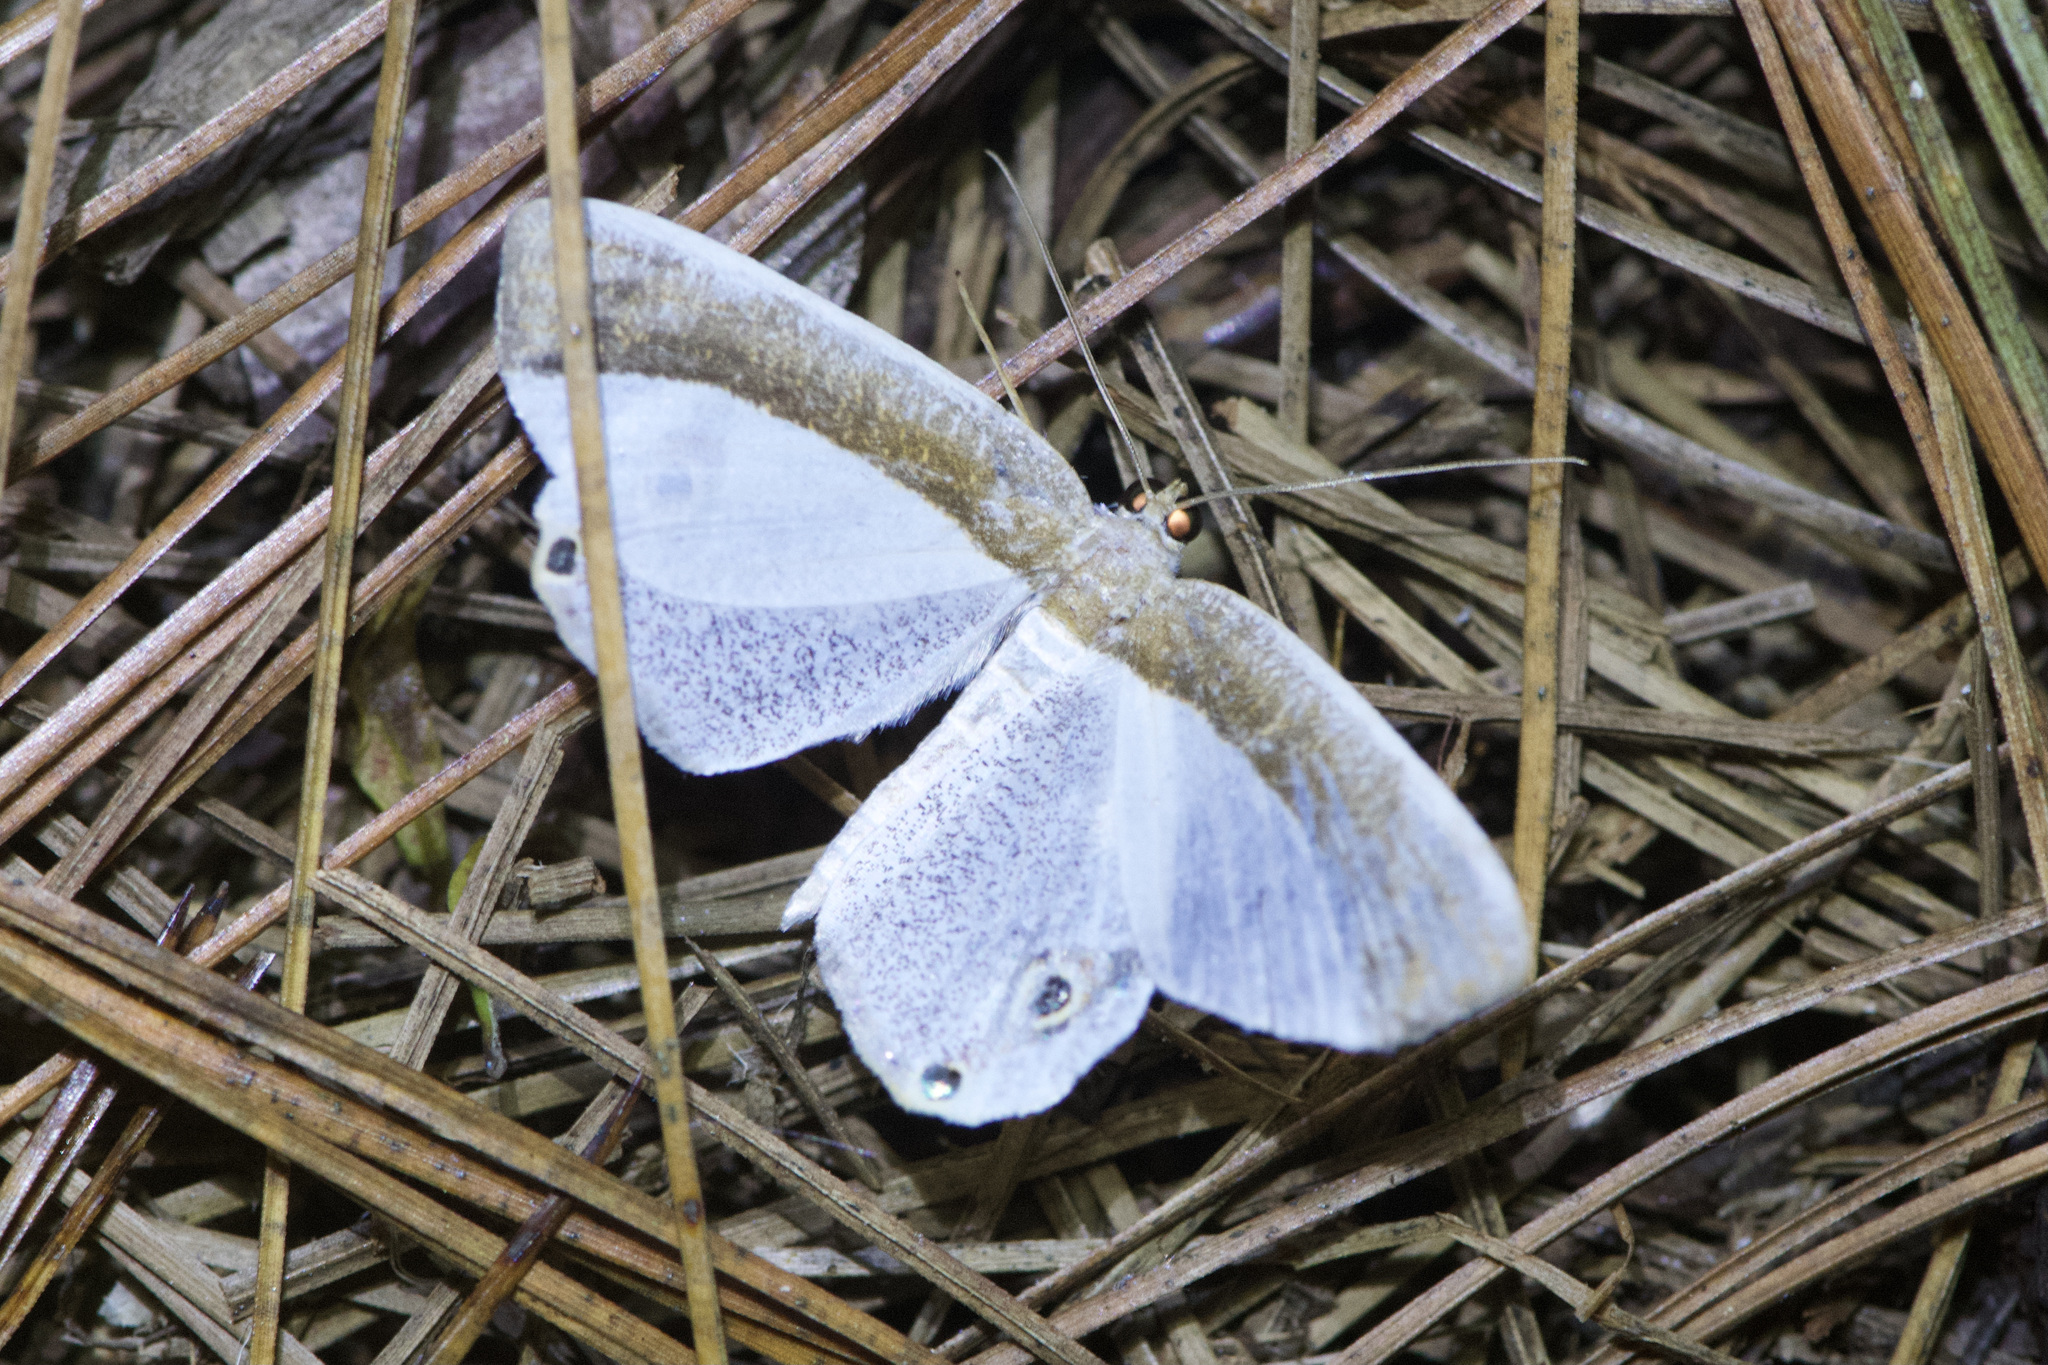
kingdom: Animalia
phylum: Arthropoda
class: Insecta
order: Lepidoptera
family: Geometridae
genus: Opisthoxia
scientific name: Opisthoxia amabilis
